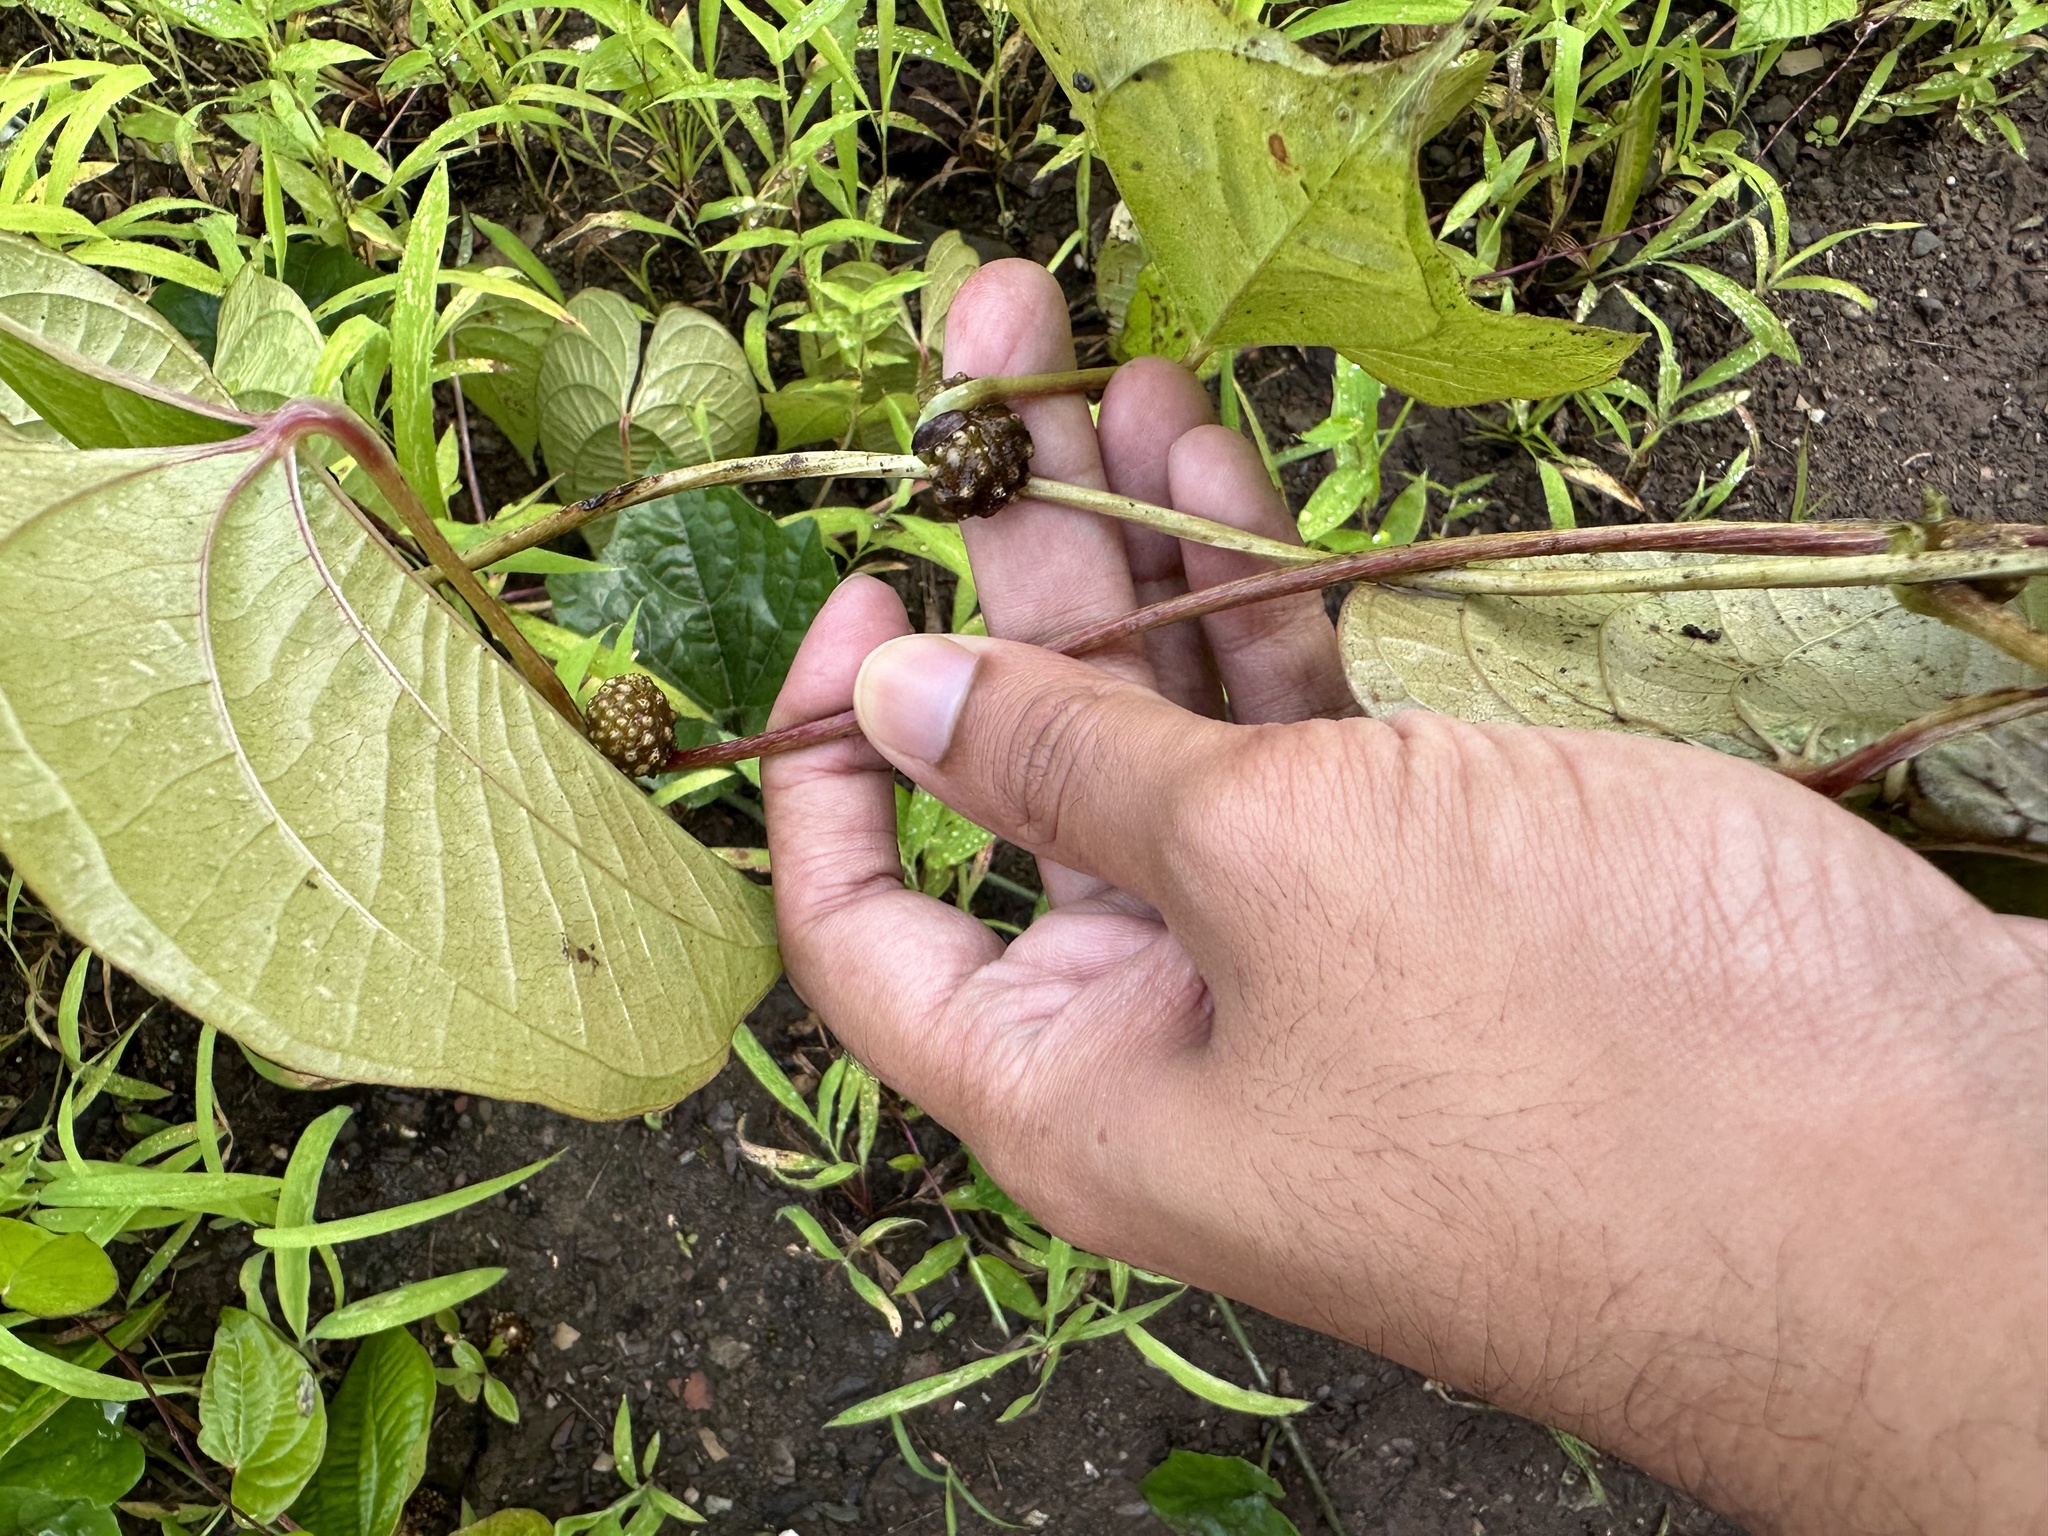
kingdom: Plantae
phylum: Tracheophyta
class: Liliopsida
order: Dioscoreales
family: Dioscoreaceae
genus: Dioscorea
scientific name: Dioscorea bulbifera
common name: Air yam
